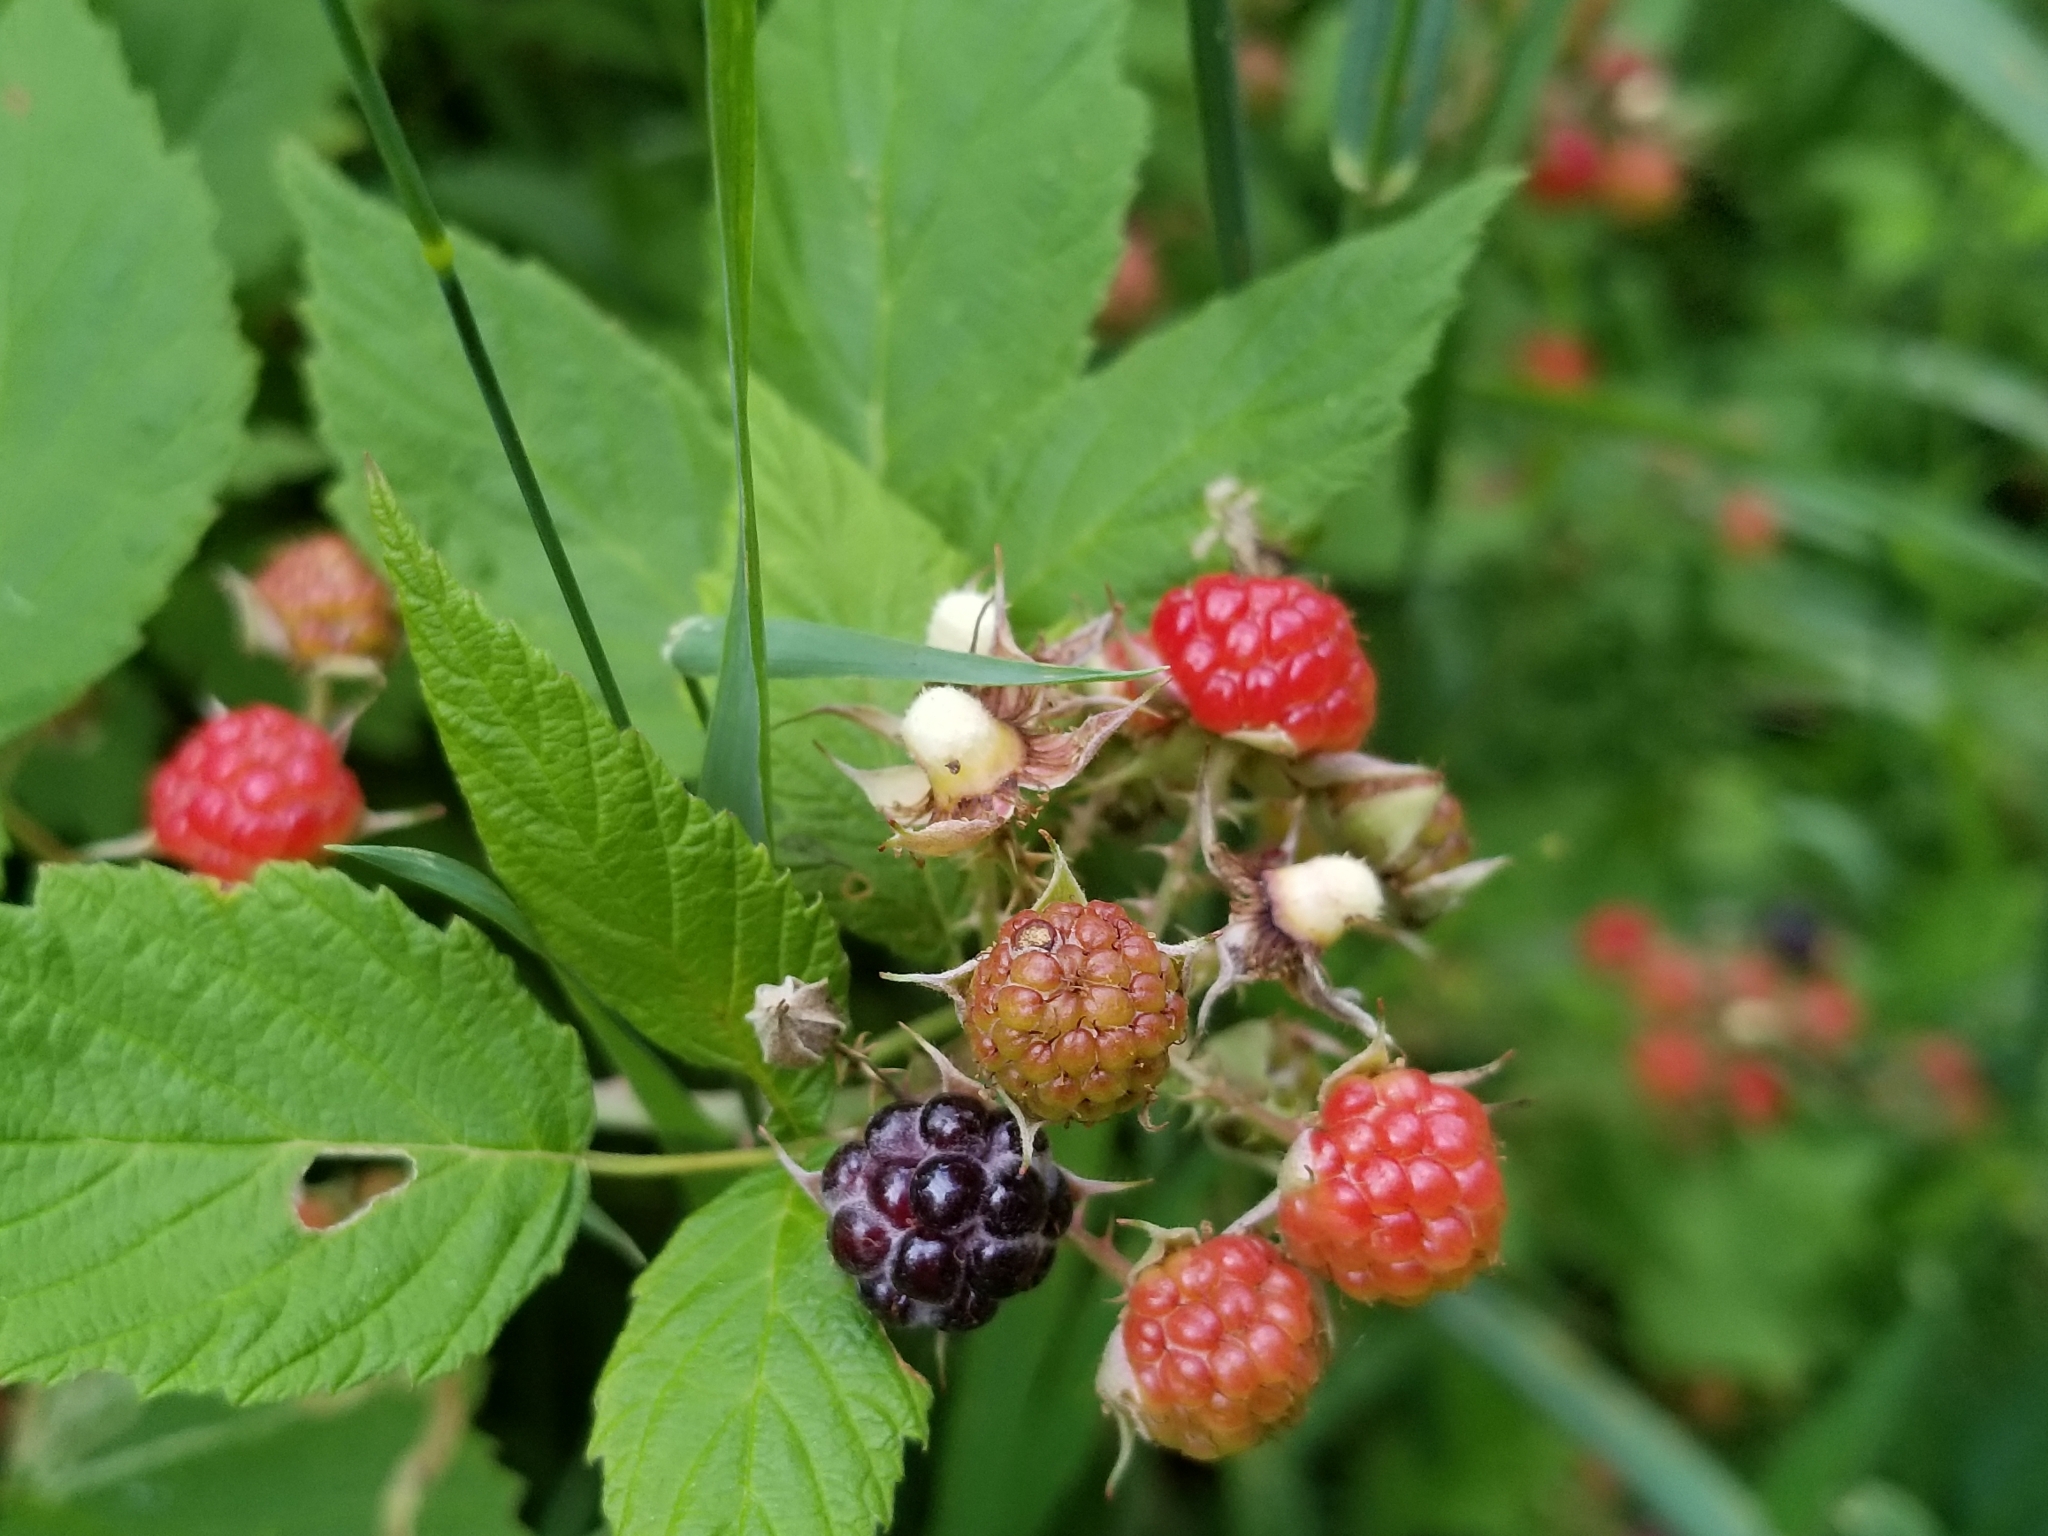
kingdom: Plantae
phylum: Tracheophyta
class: Magnoliopsida
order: Rosales
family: Rosaceae
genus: Rubus
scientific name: Rubus occidentalis
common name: Black raspberry
